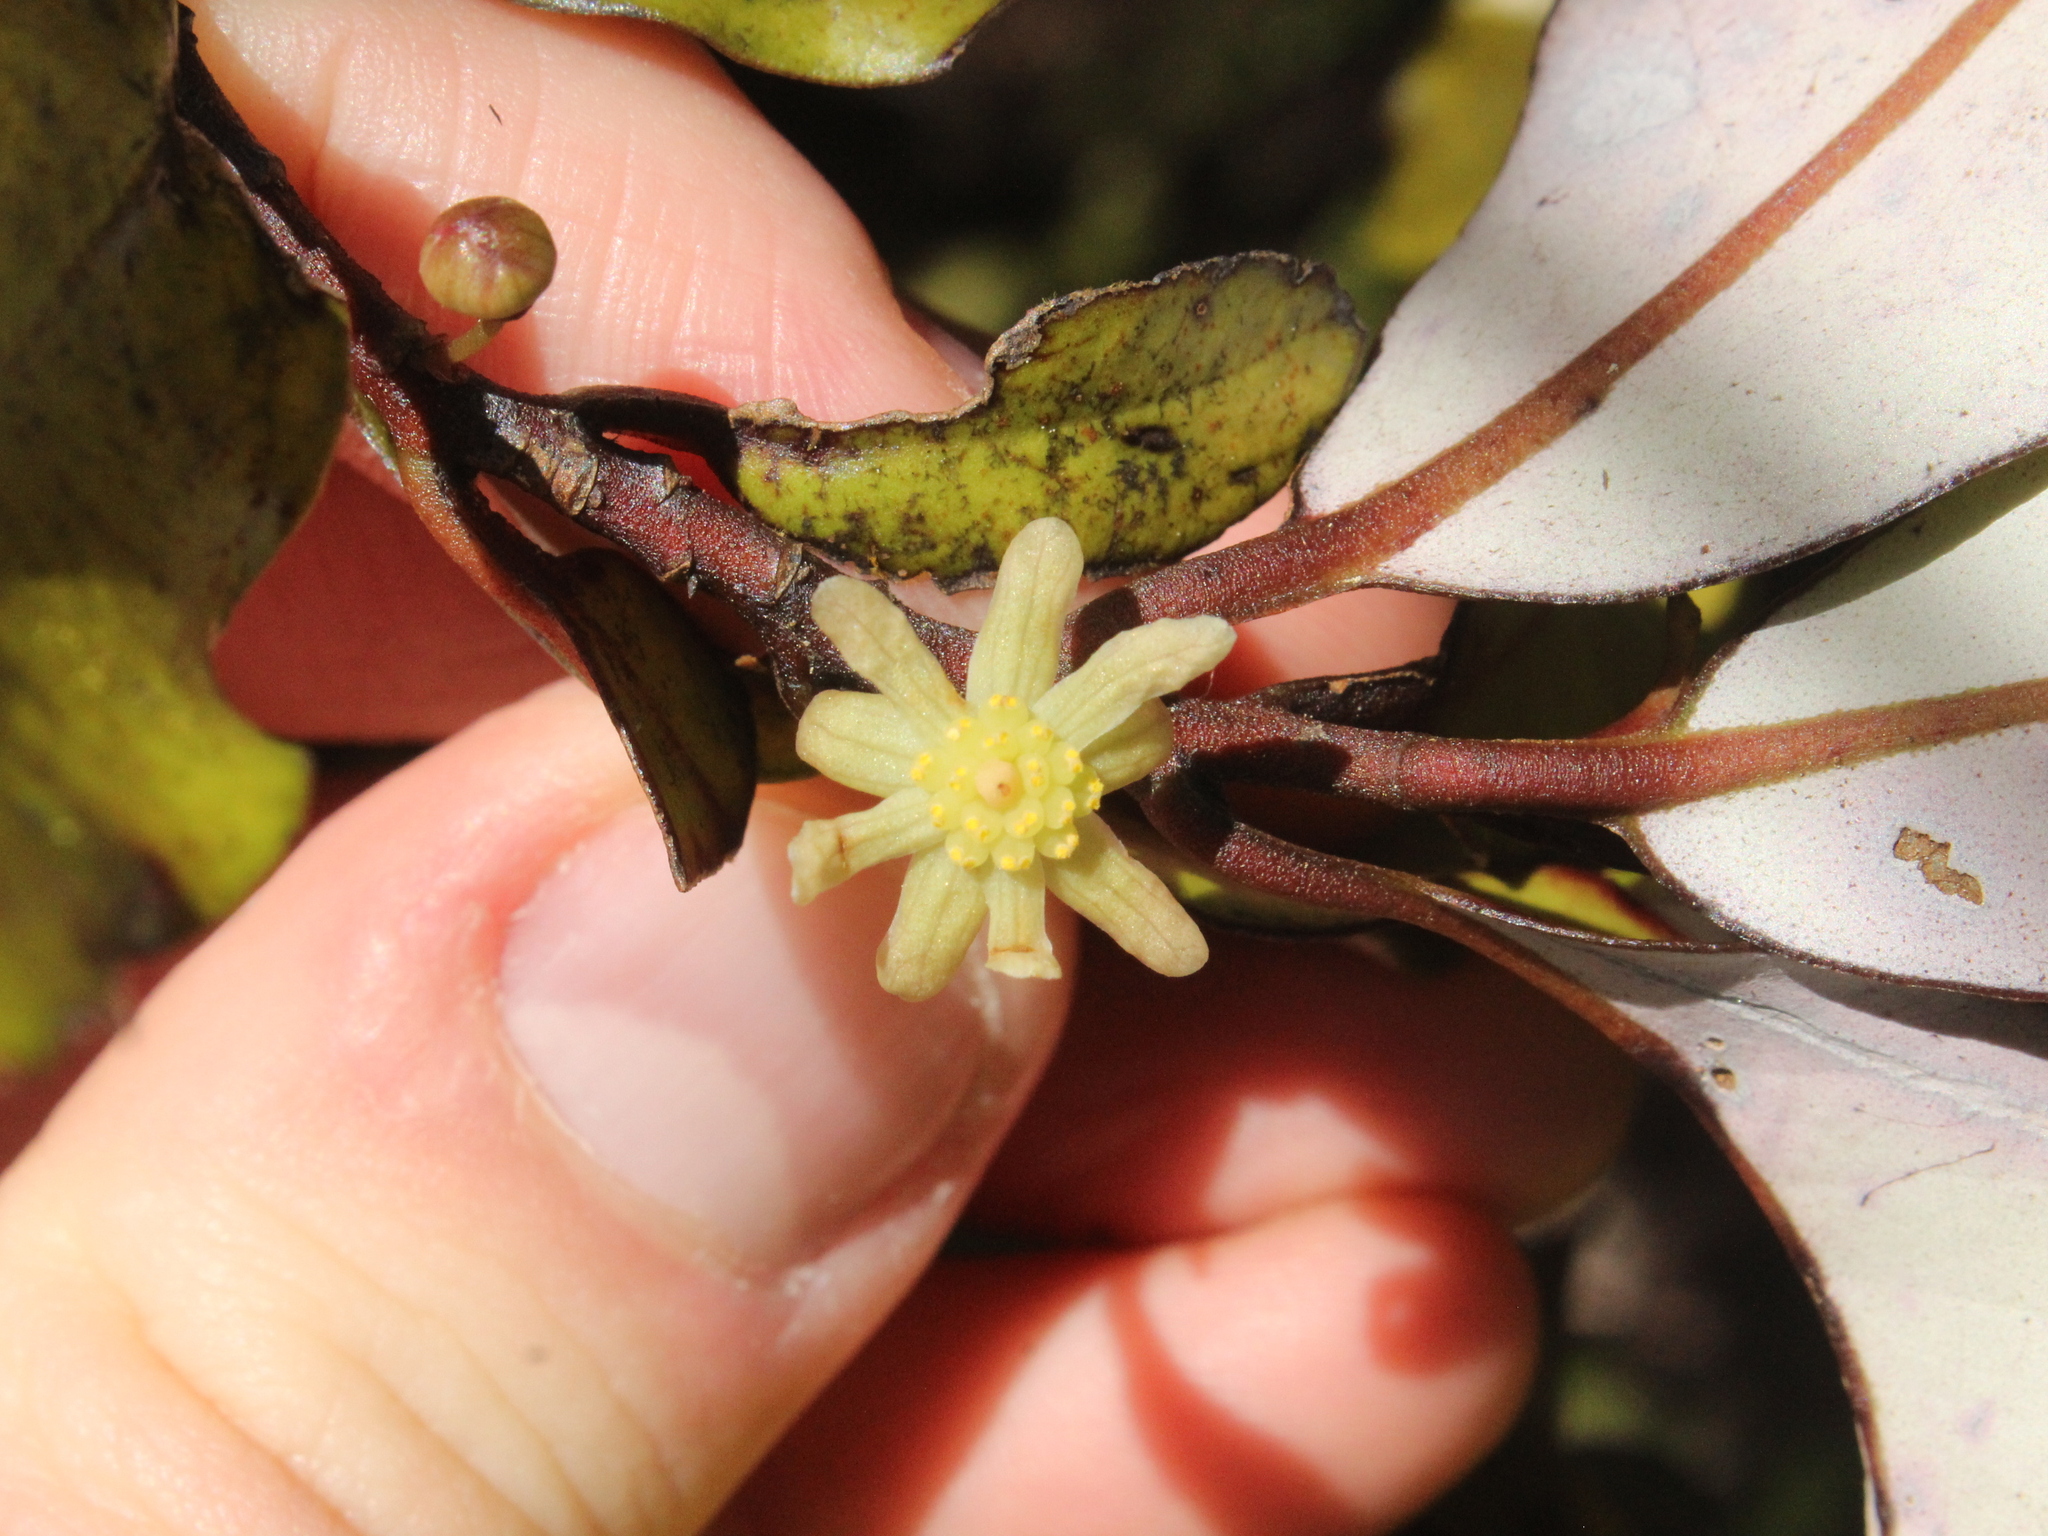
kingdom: Plantae
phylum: Tracheophyta
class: Magnoliopsida
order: Canellales
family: Winteraceae
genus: Pseudowintera
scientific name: Pseudowintera colorata
